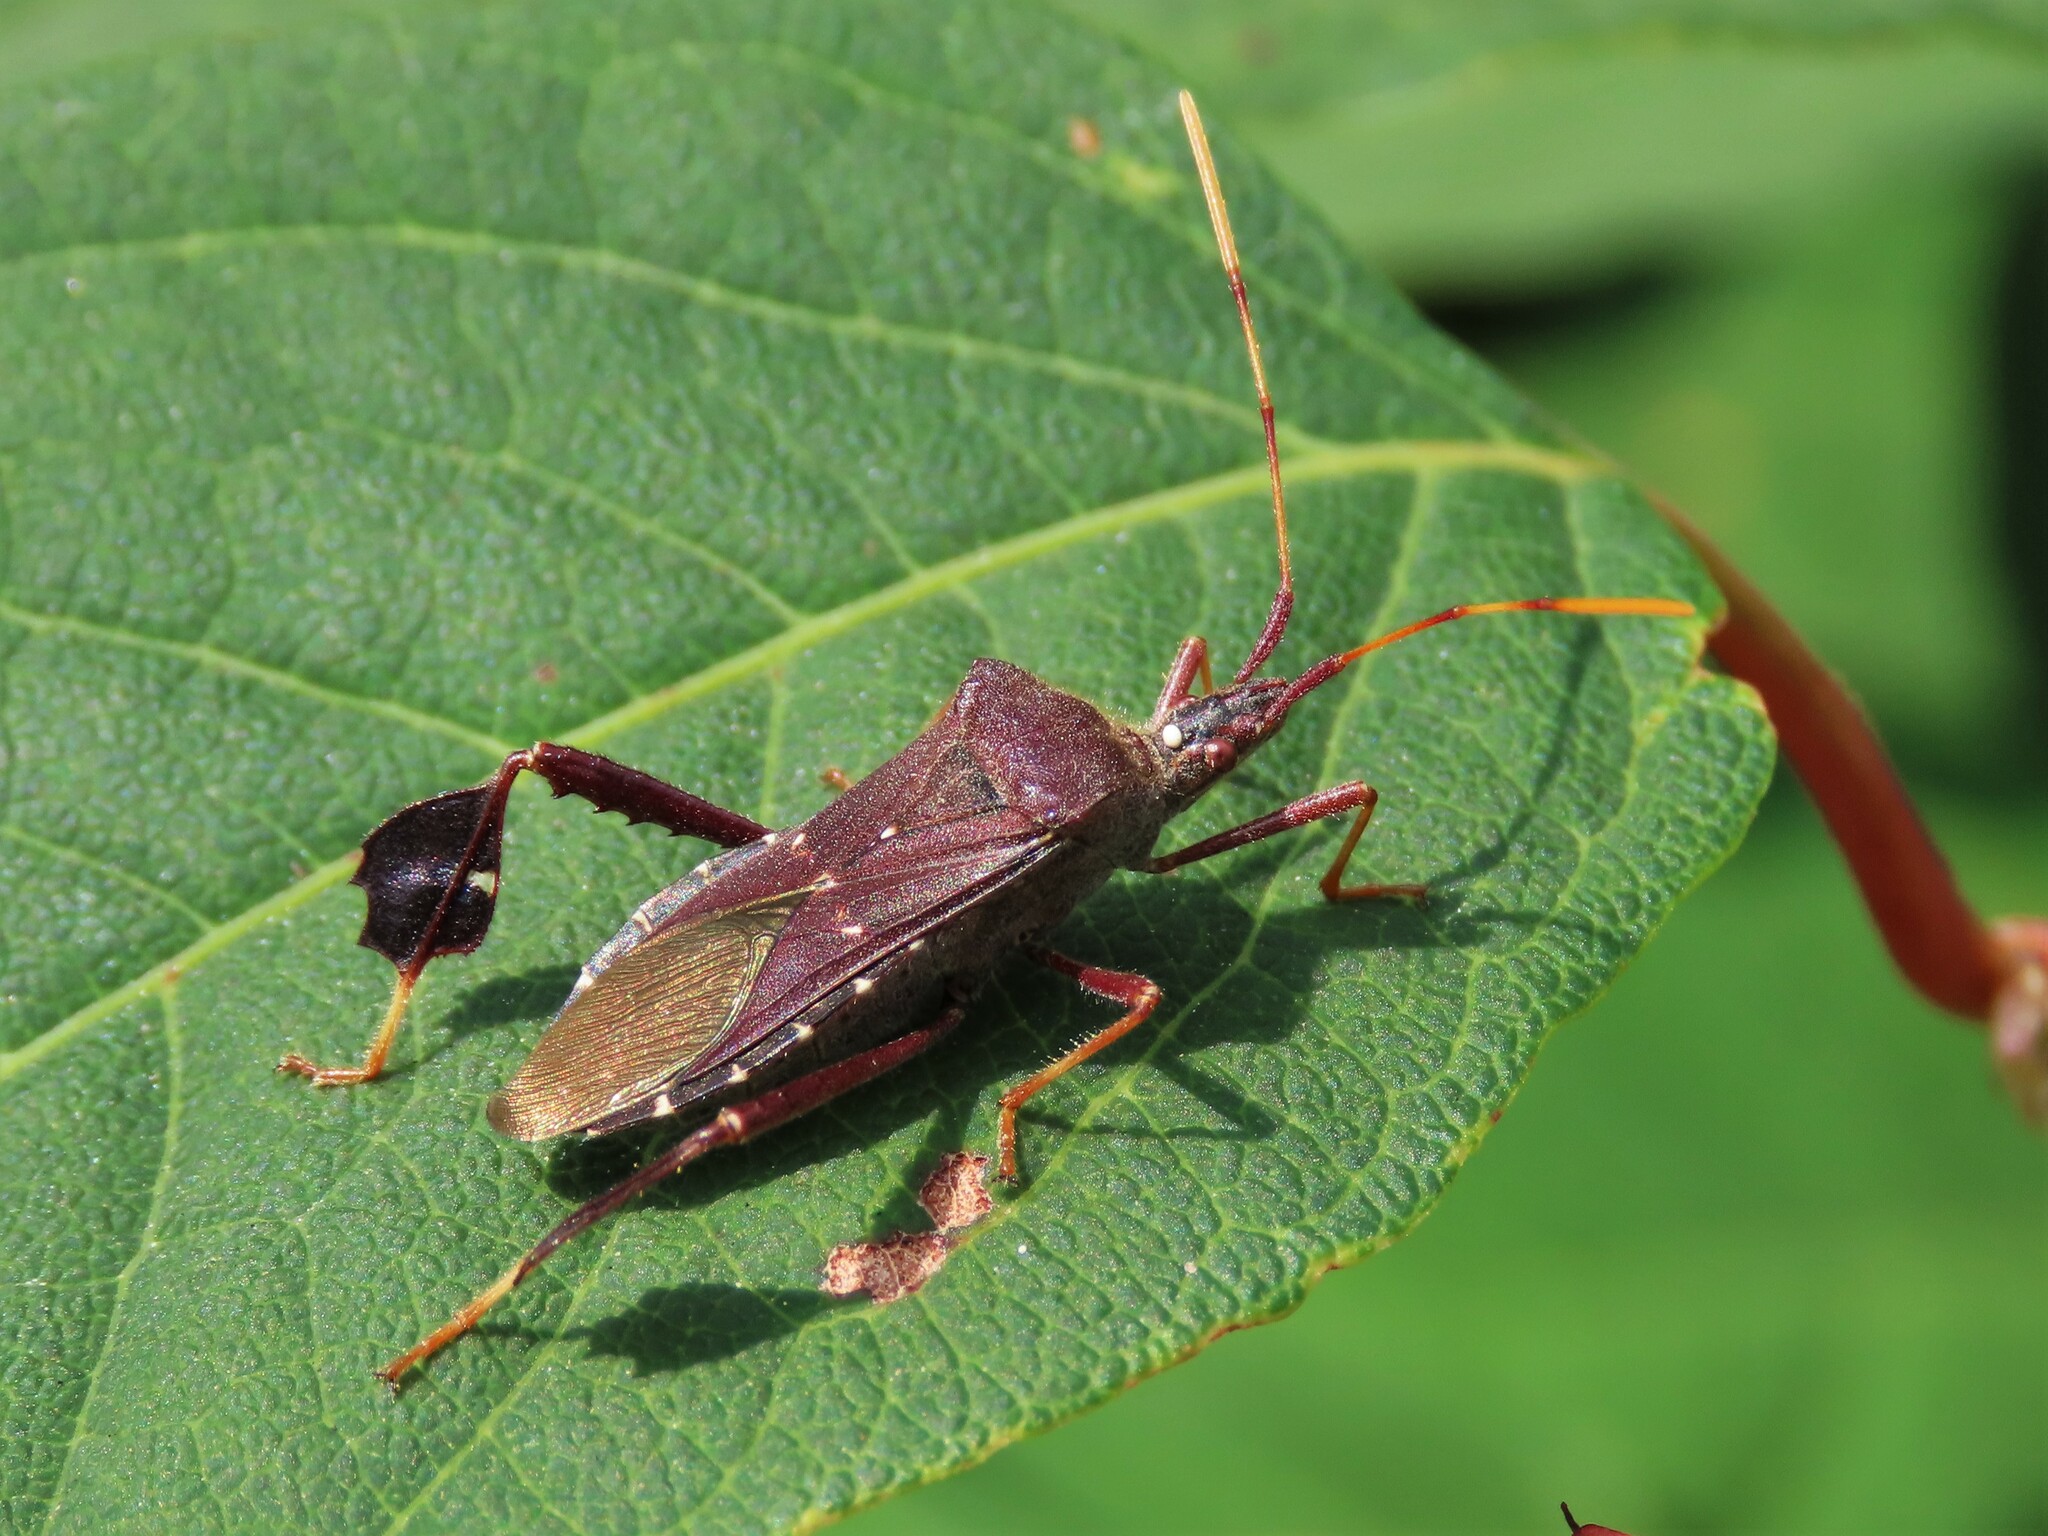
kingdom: Animalia
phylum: Arthropoda
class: Insecta
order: Hemiptera
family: Coreidae
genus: Leptoglossus
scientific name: Leptoglossus oppositus
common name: Northern leaf-footed bug
